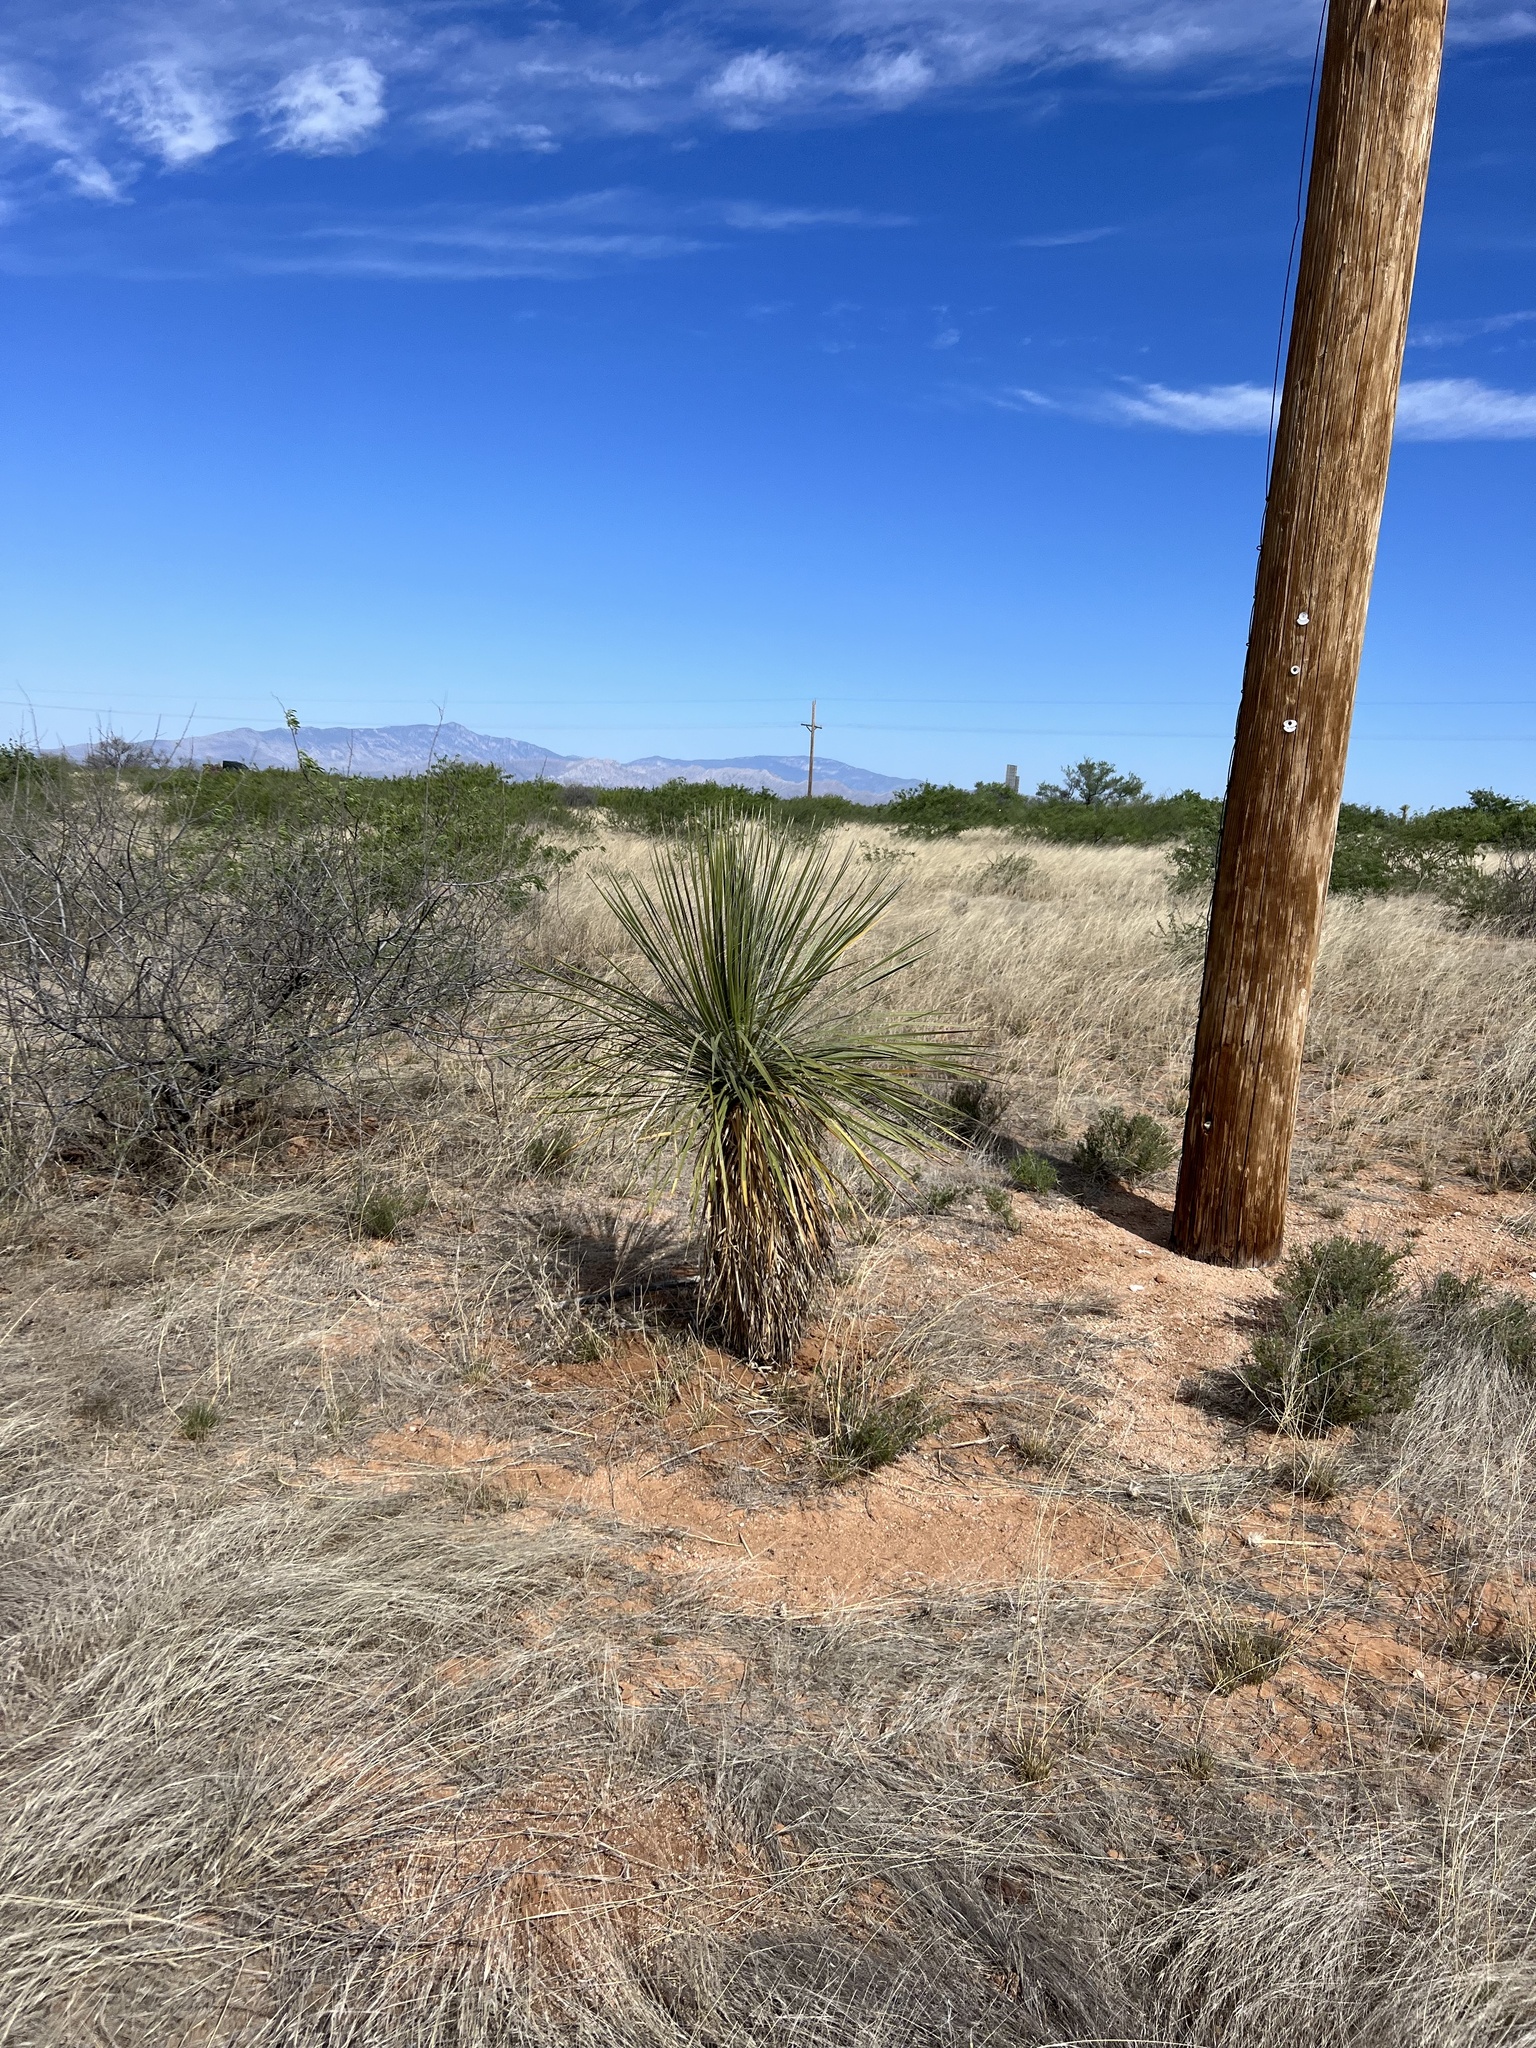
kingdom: Plantae
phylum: Tracheophyta
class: Liliopsida
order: Asparagales
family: Asparagaceae
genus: Yucca
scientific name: Yucca elata
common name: Palmella
